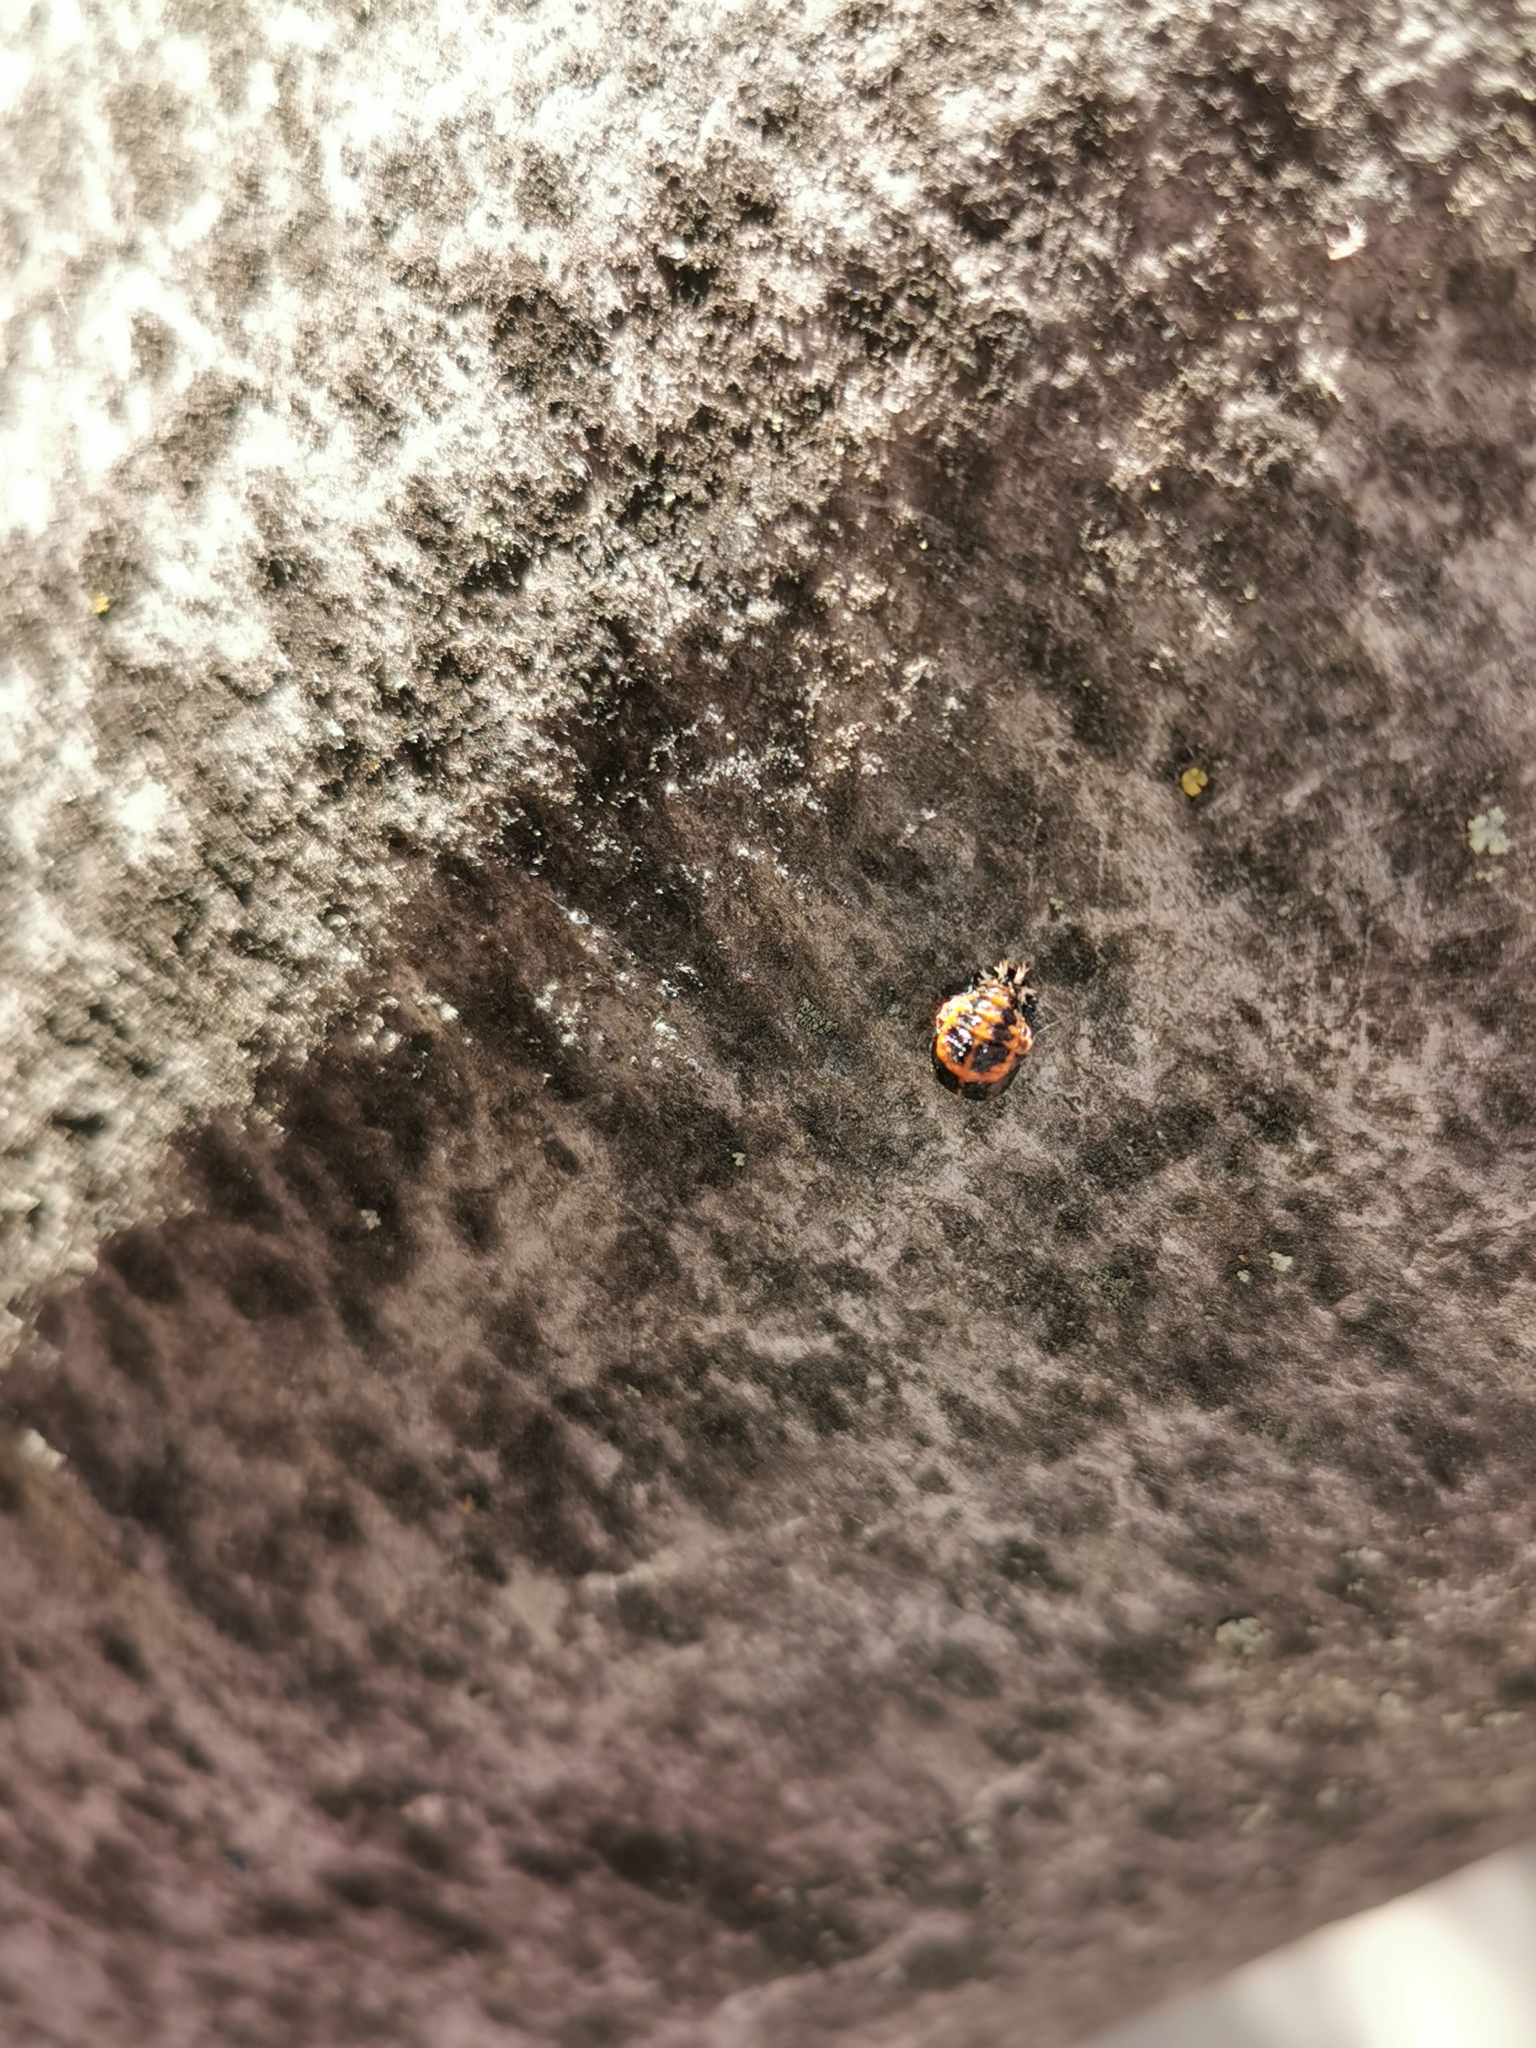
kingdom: Animalia
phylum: Arthropoda
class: Insecta
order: Coleoptera
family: Coccinellidae
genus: Harmonia
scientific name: Harmonia axyridis
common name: Harlequin ladybird
